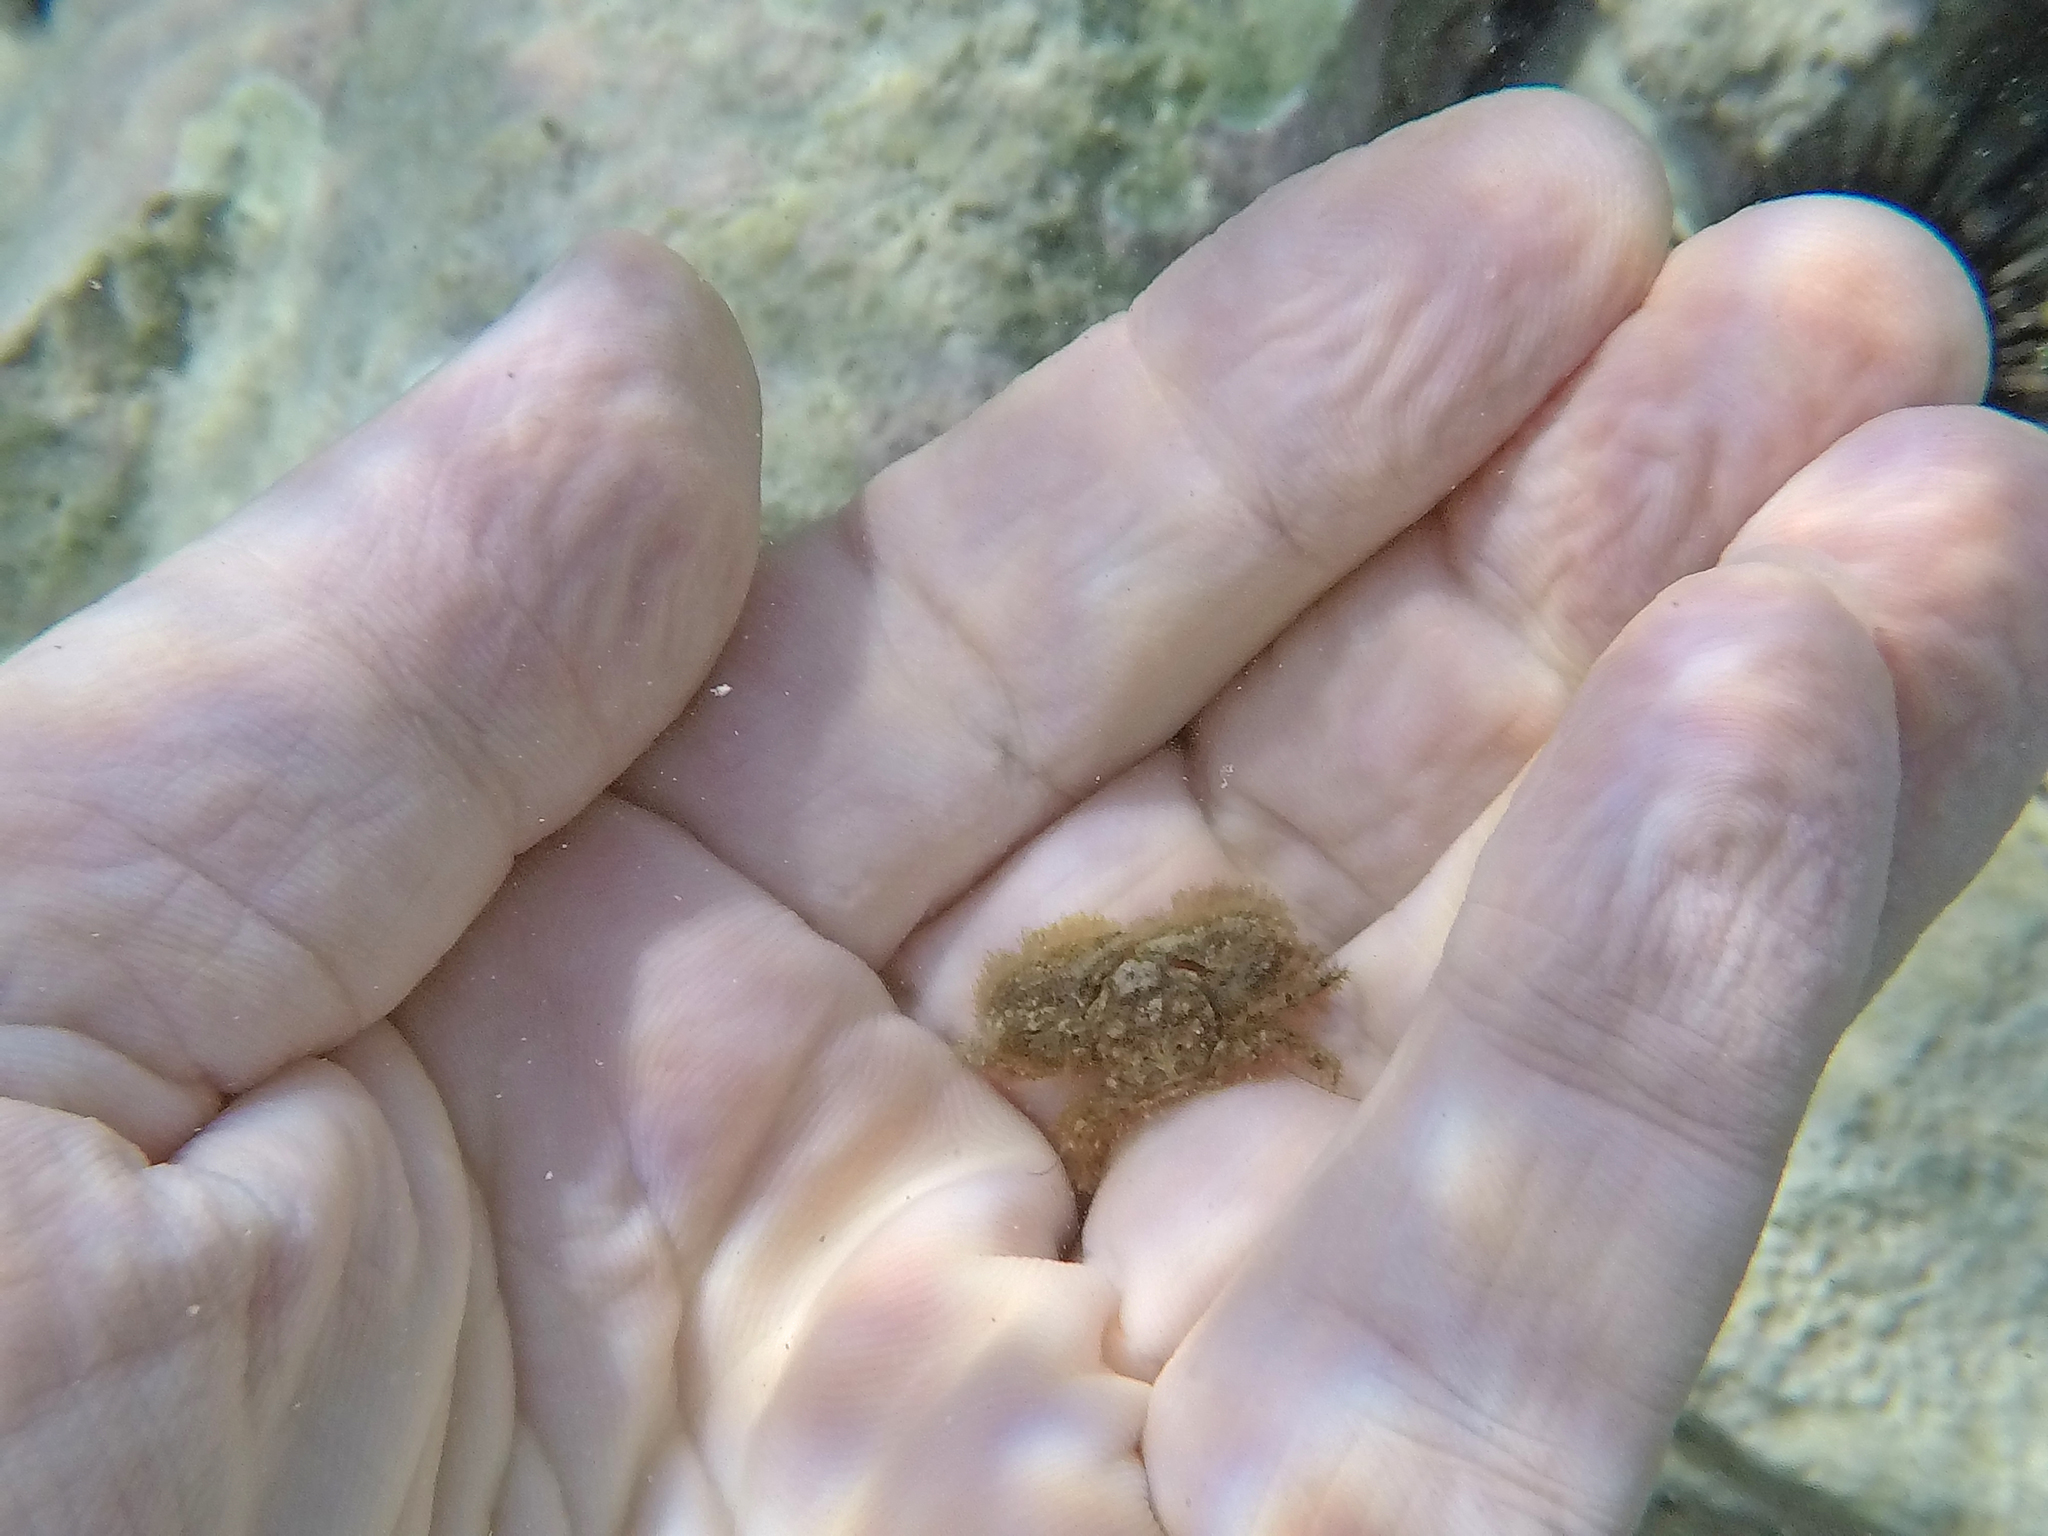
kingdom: Animalia
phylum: Arthropoda
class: Malacostraca
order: Decapoda
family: Porcellanidae
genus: Porcellana
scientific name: Porcellana platycheles
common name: Porcelain crab
